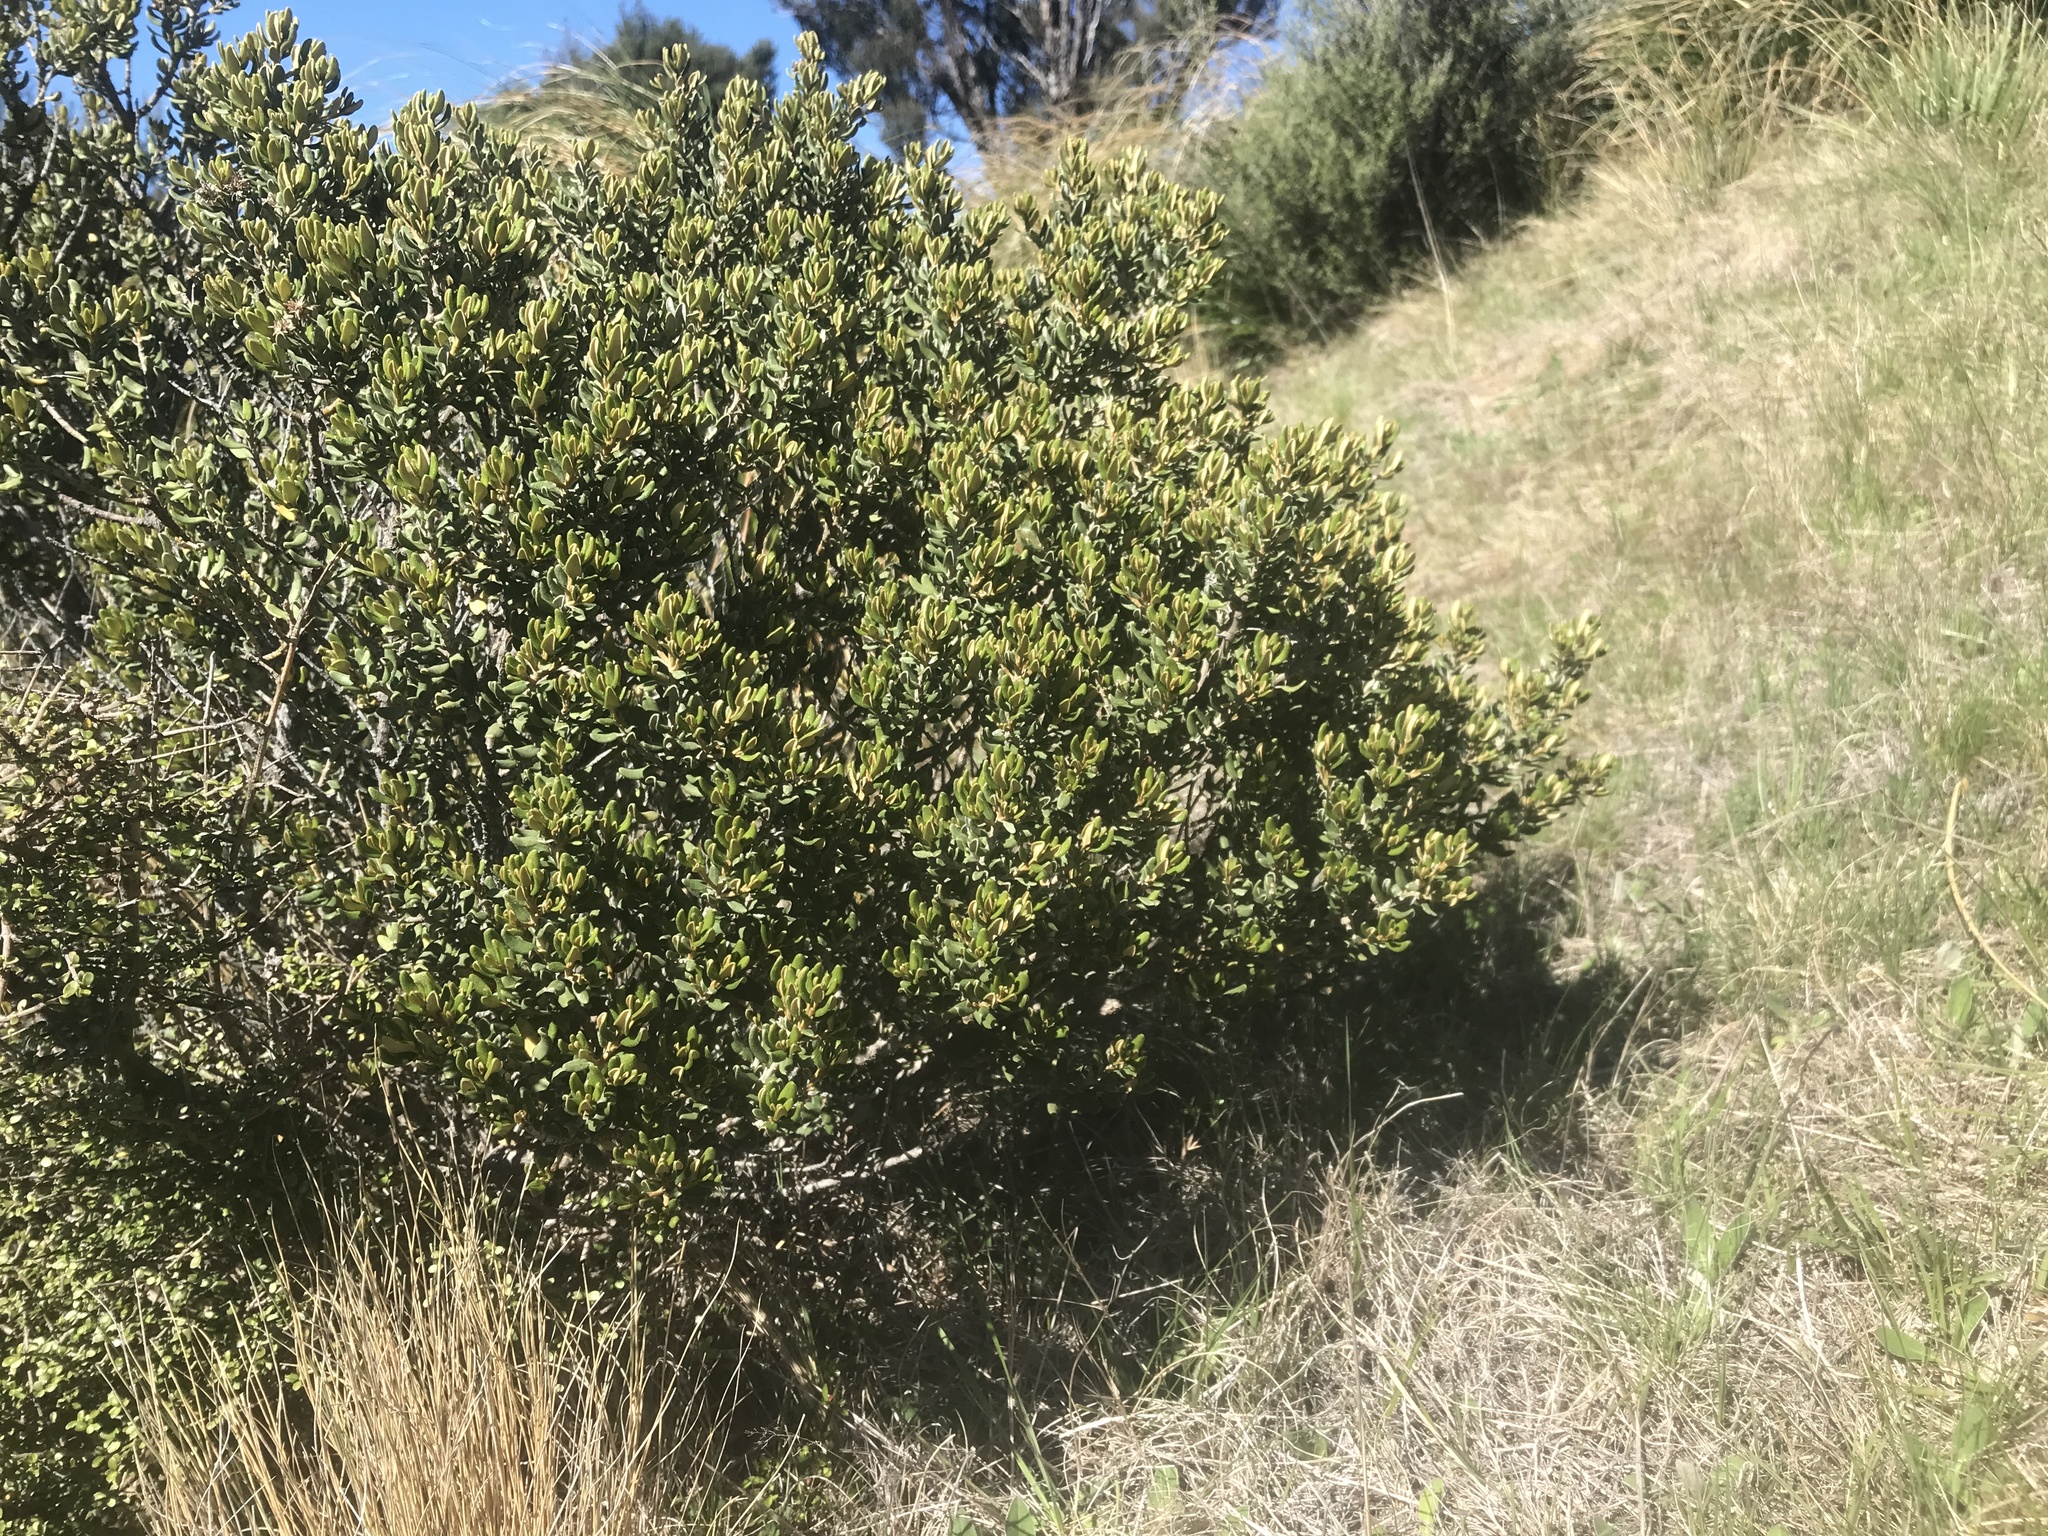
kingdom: Plantae
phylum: Tracheophyta
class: Magnoliopsida
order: Asterales
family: Asteraceae
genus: Olearia
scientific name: Olearia coriacea
